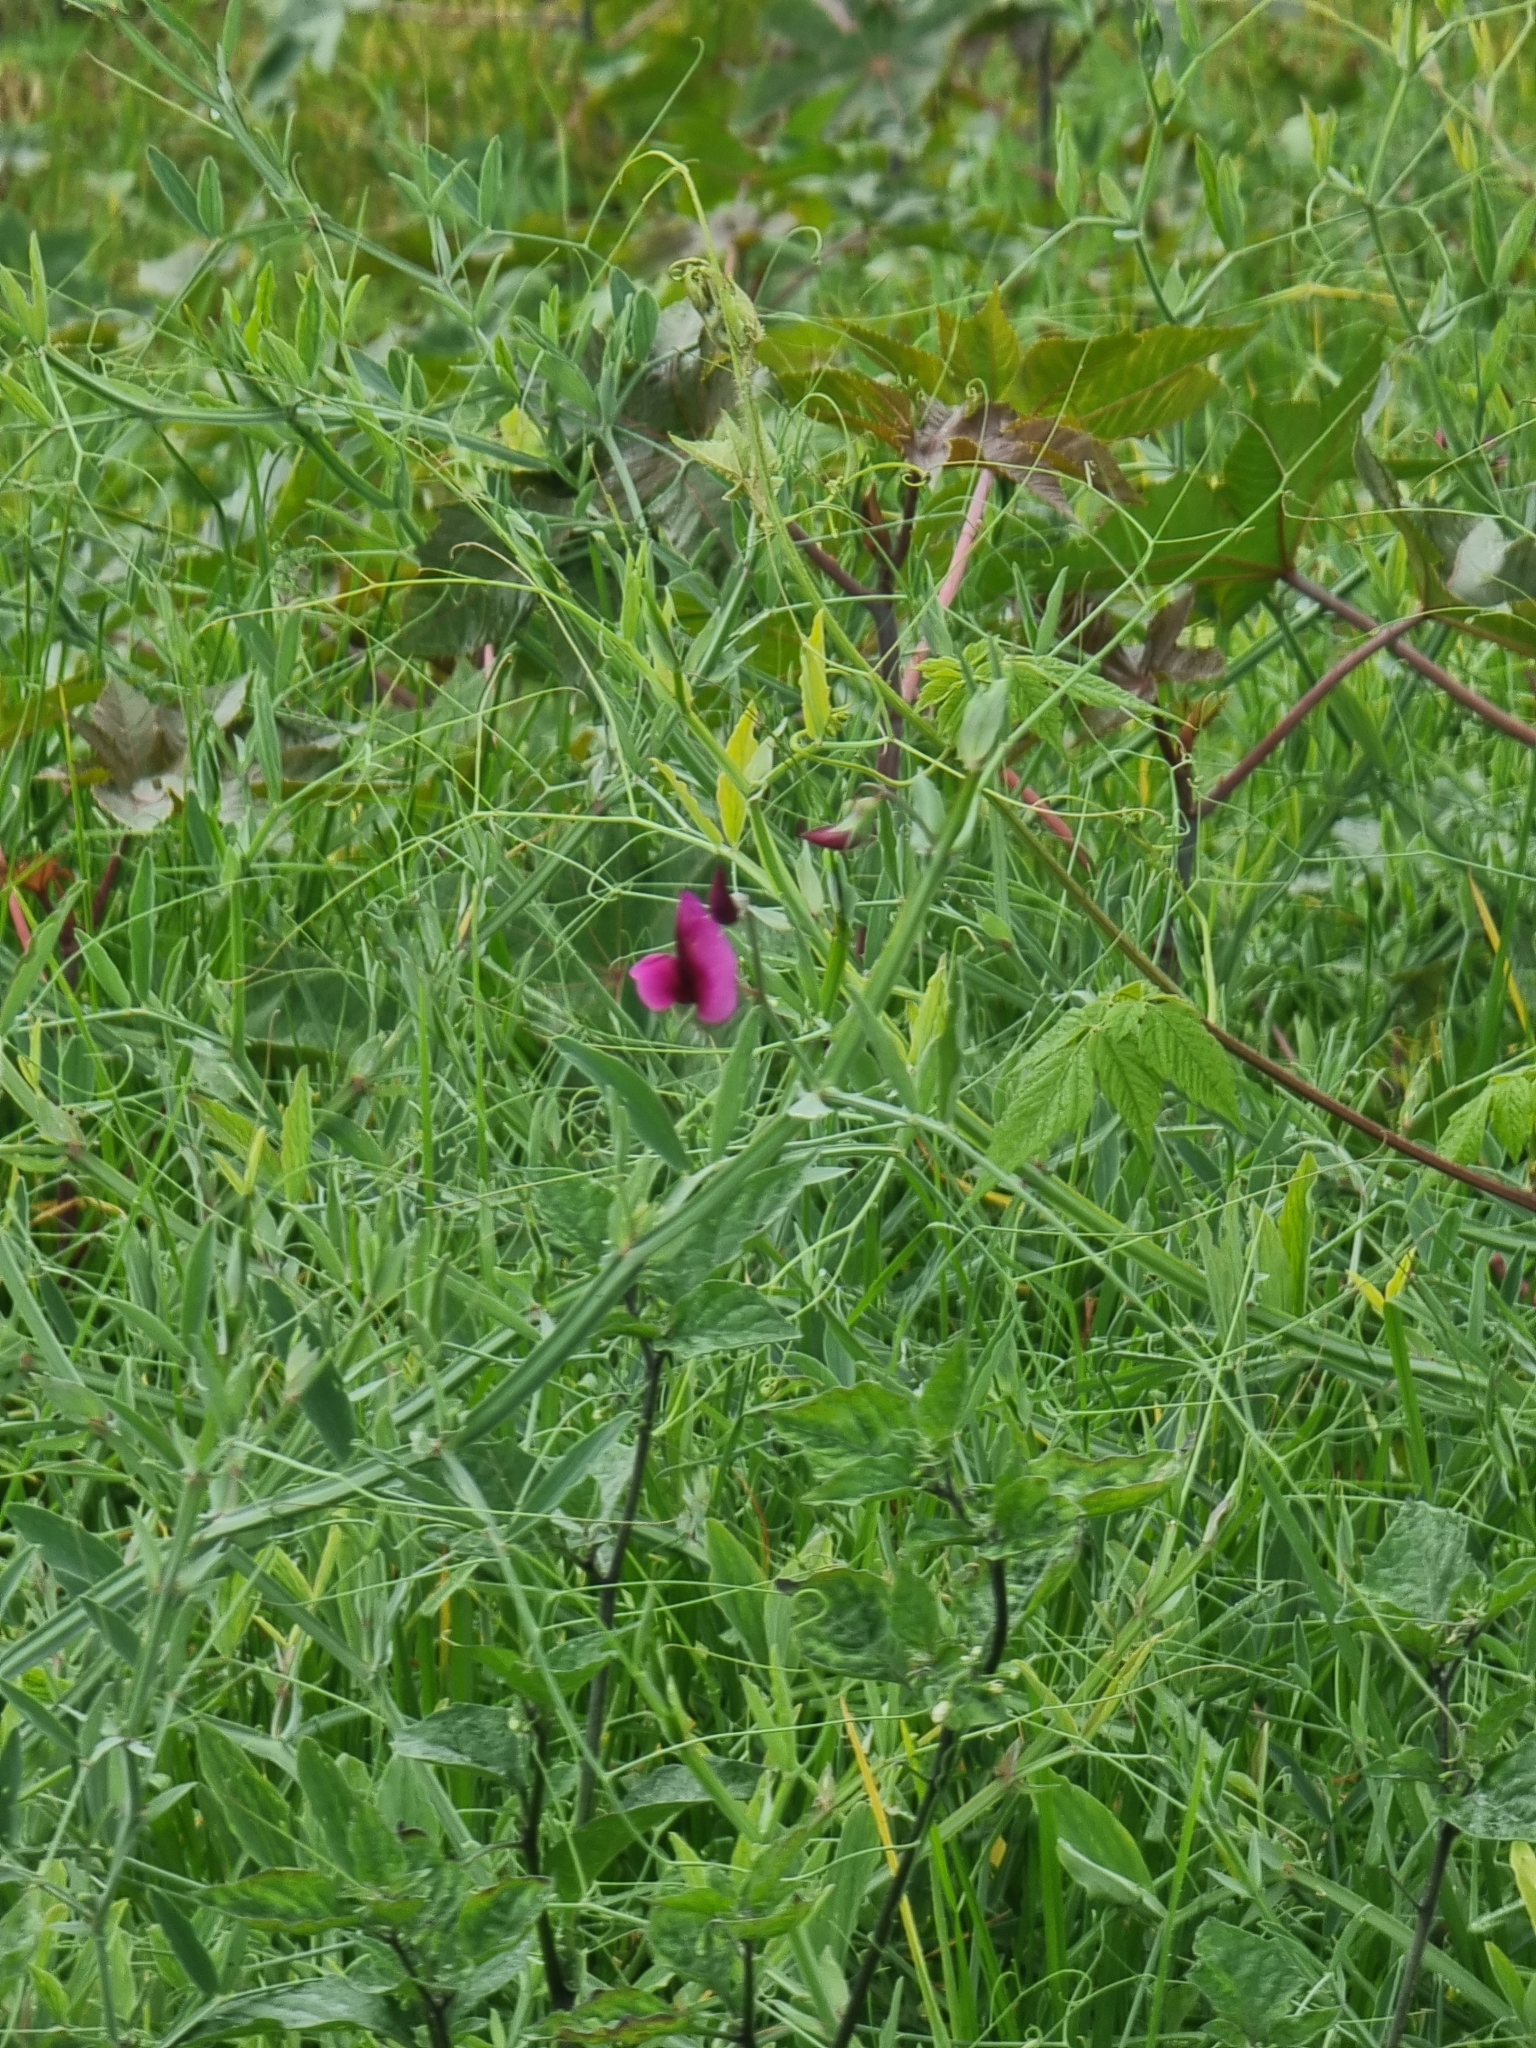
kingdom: Plantae
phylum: Tracheophyta
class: Magnoliopsida
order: Fabales
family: Fabaceae
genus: Lathyrus
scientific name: Lathyrus tingitanus
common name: Tangier pea
